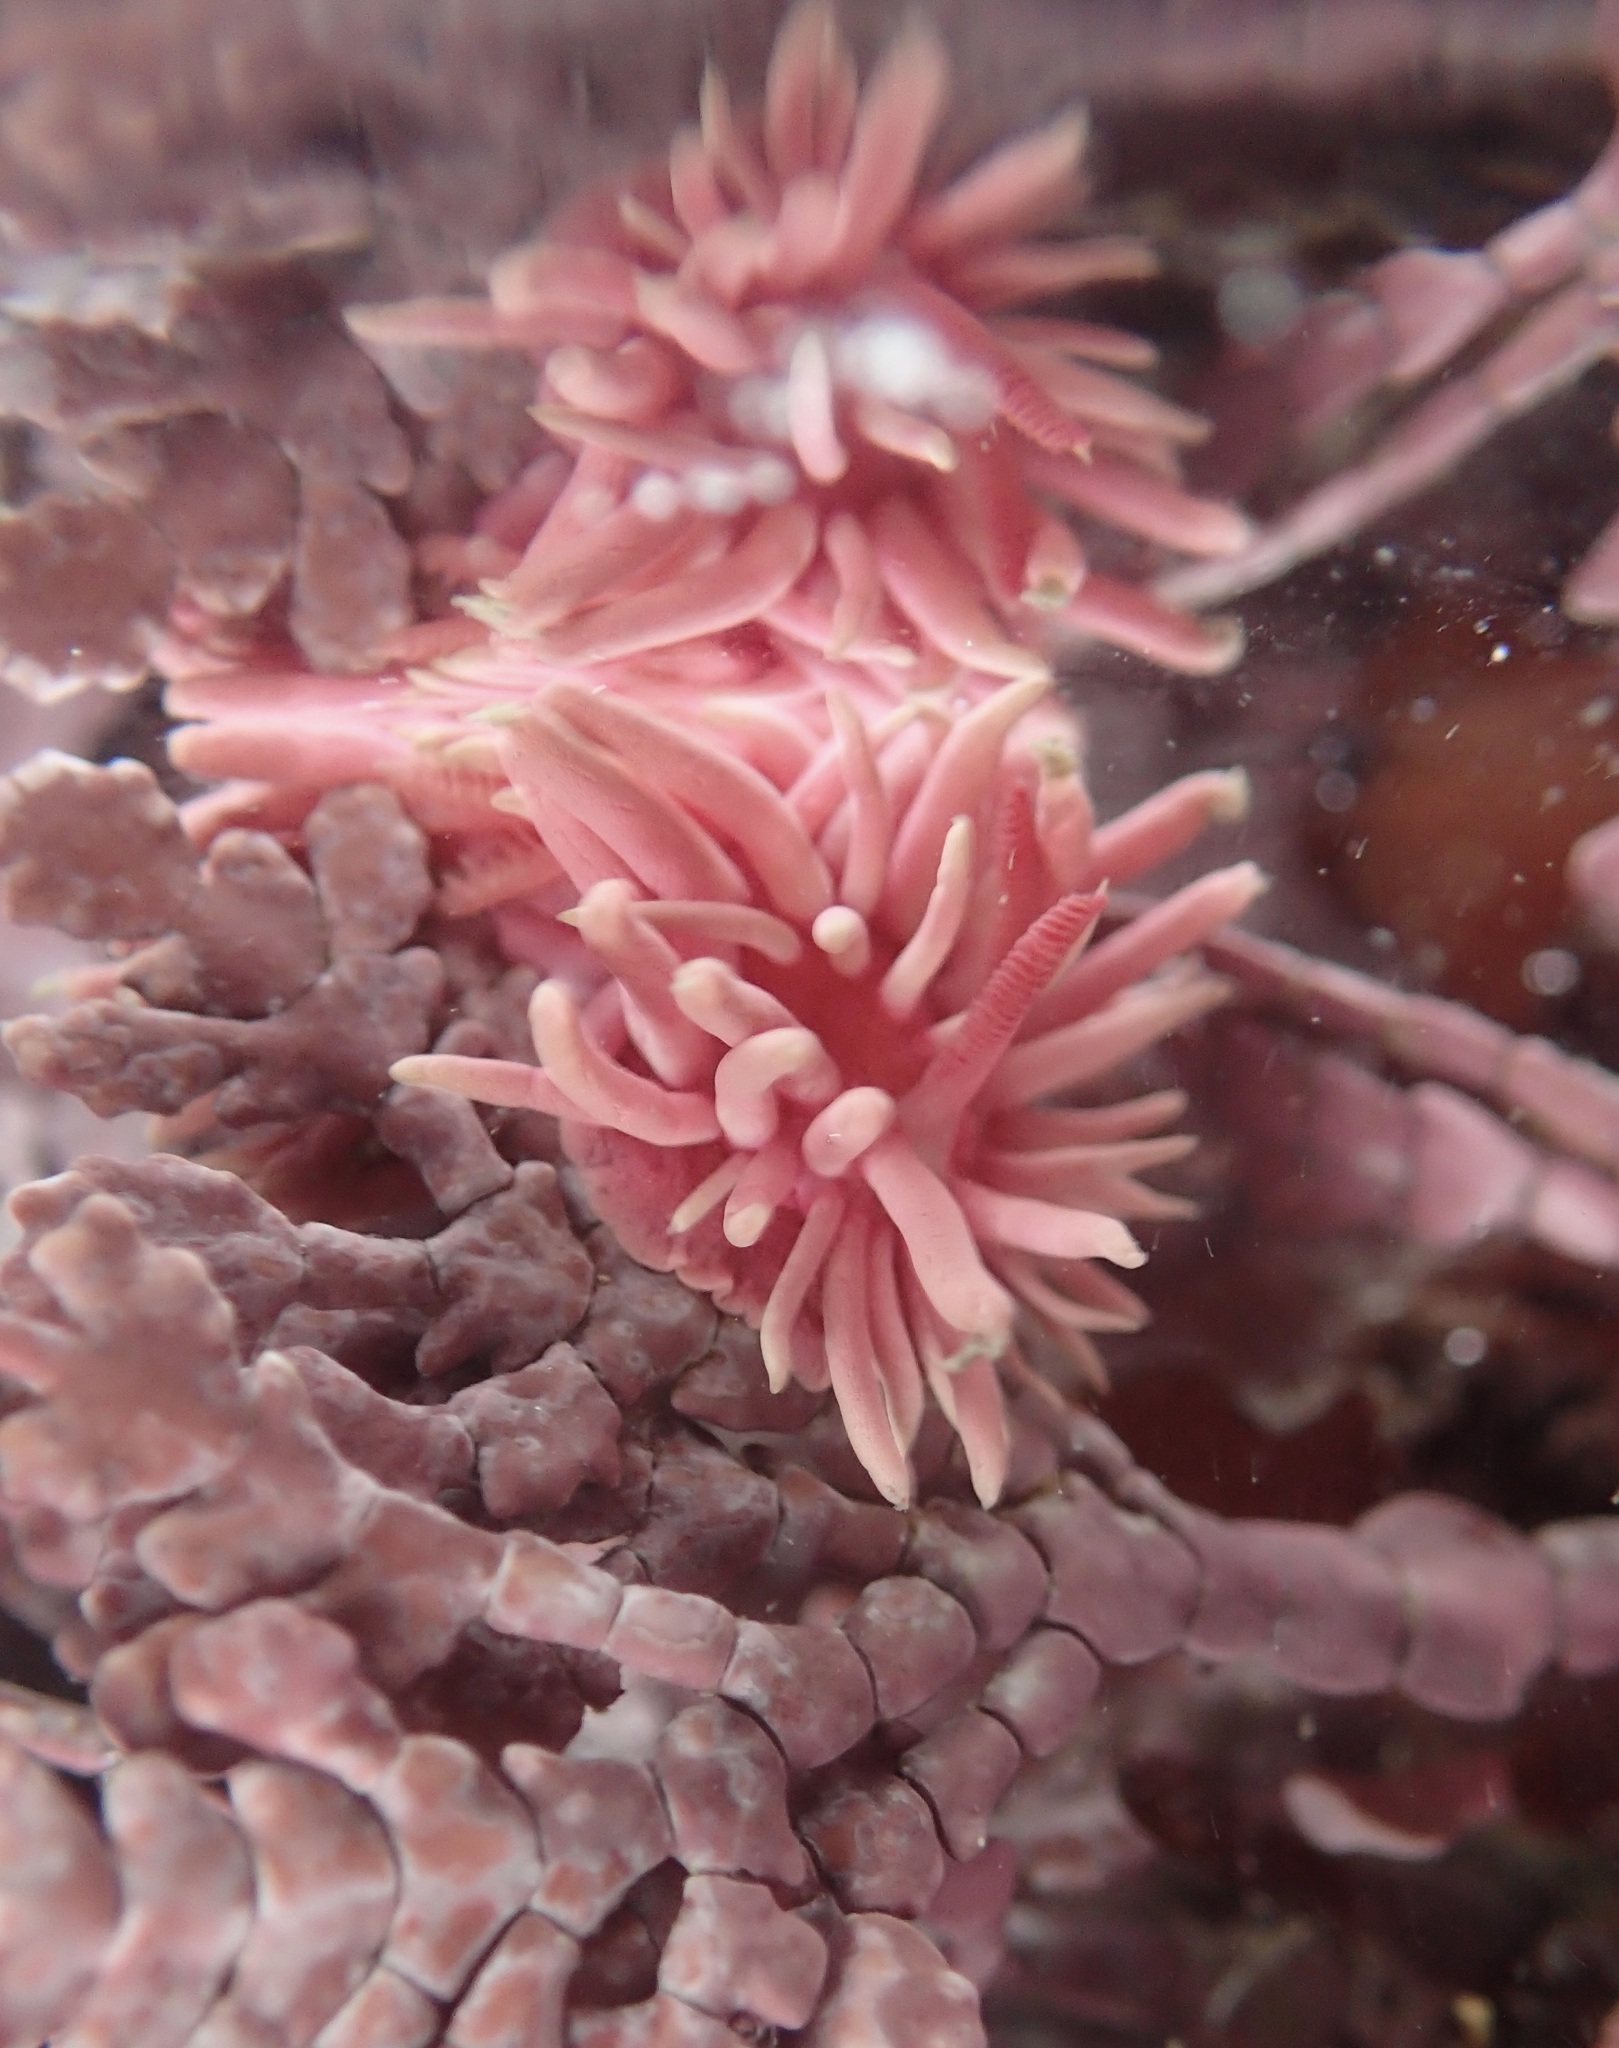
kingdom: Animalia
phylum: Mollusca
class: Gastropoda
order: Nudibranchia
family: Goniodorididae
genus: Okenia
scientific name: Okenia
